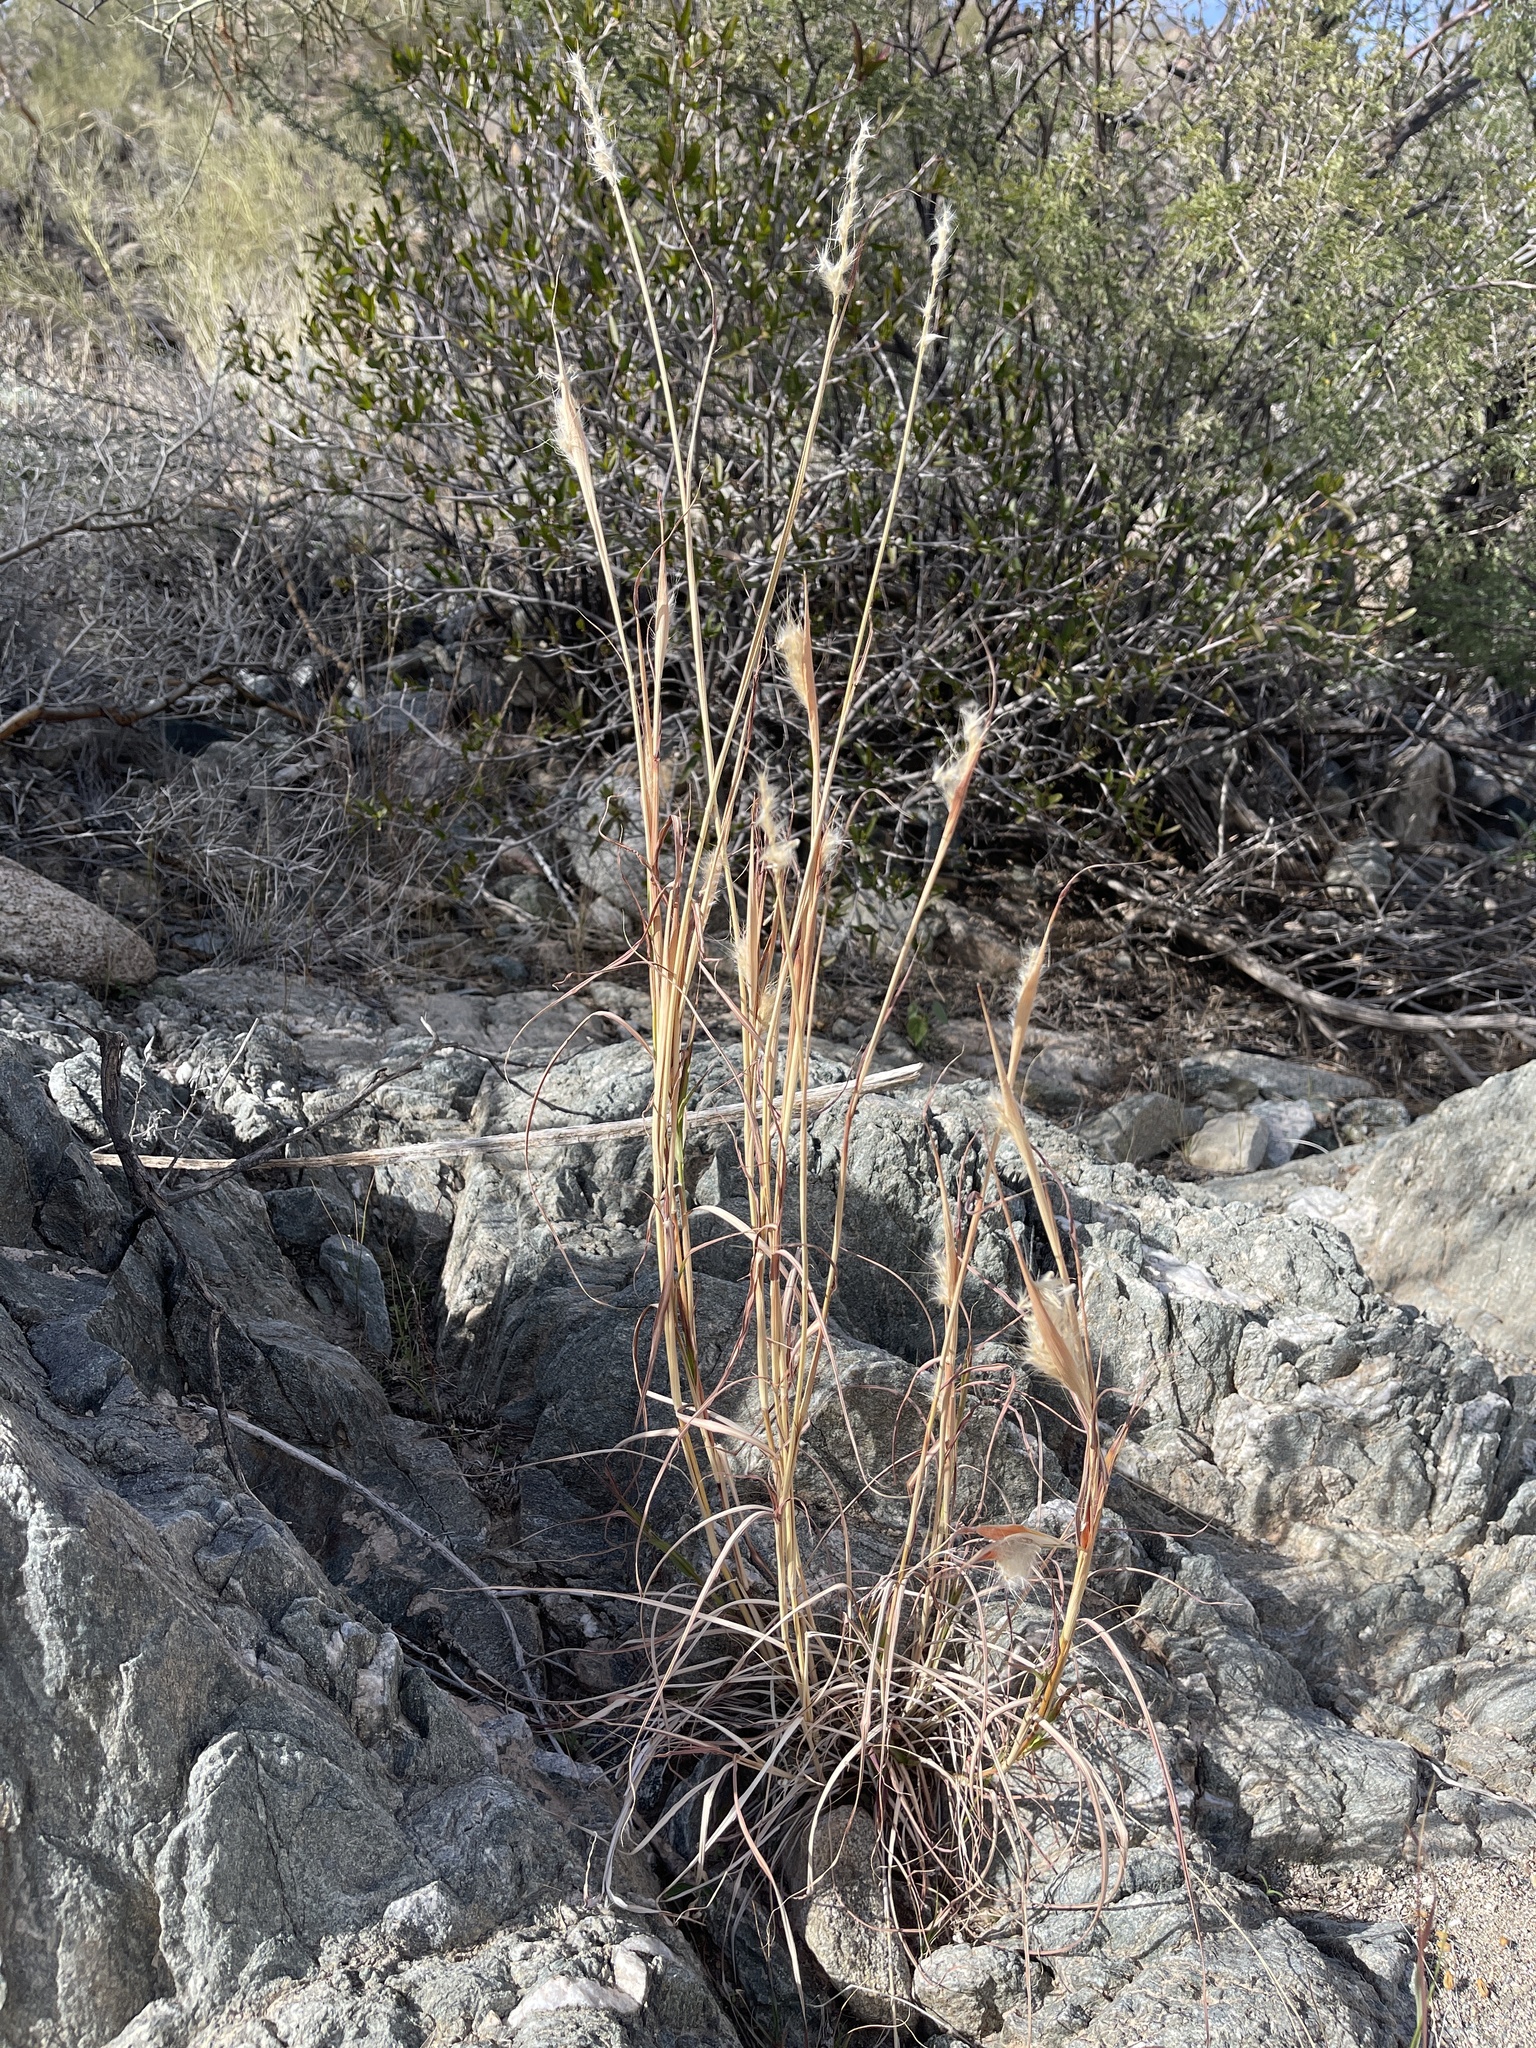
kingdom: Plantae
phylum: Tracheophyta
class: Liliopsida
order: Poales
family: Poaceae
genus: Bothriochloa
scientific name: Bothriochloa barbinodis
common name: Cane bluestem
